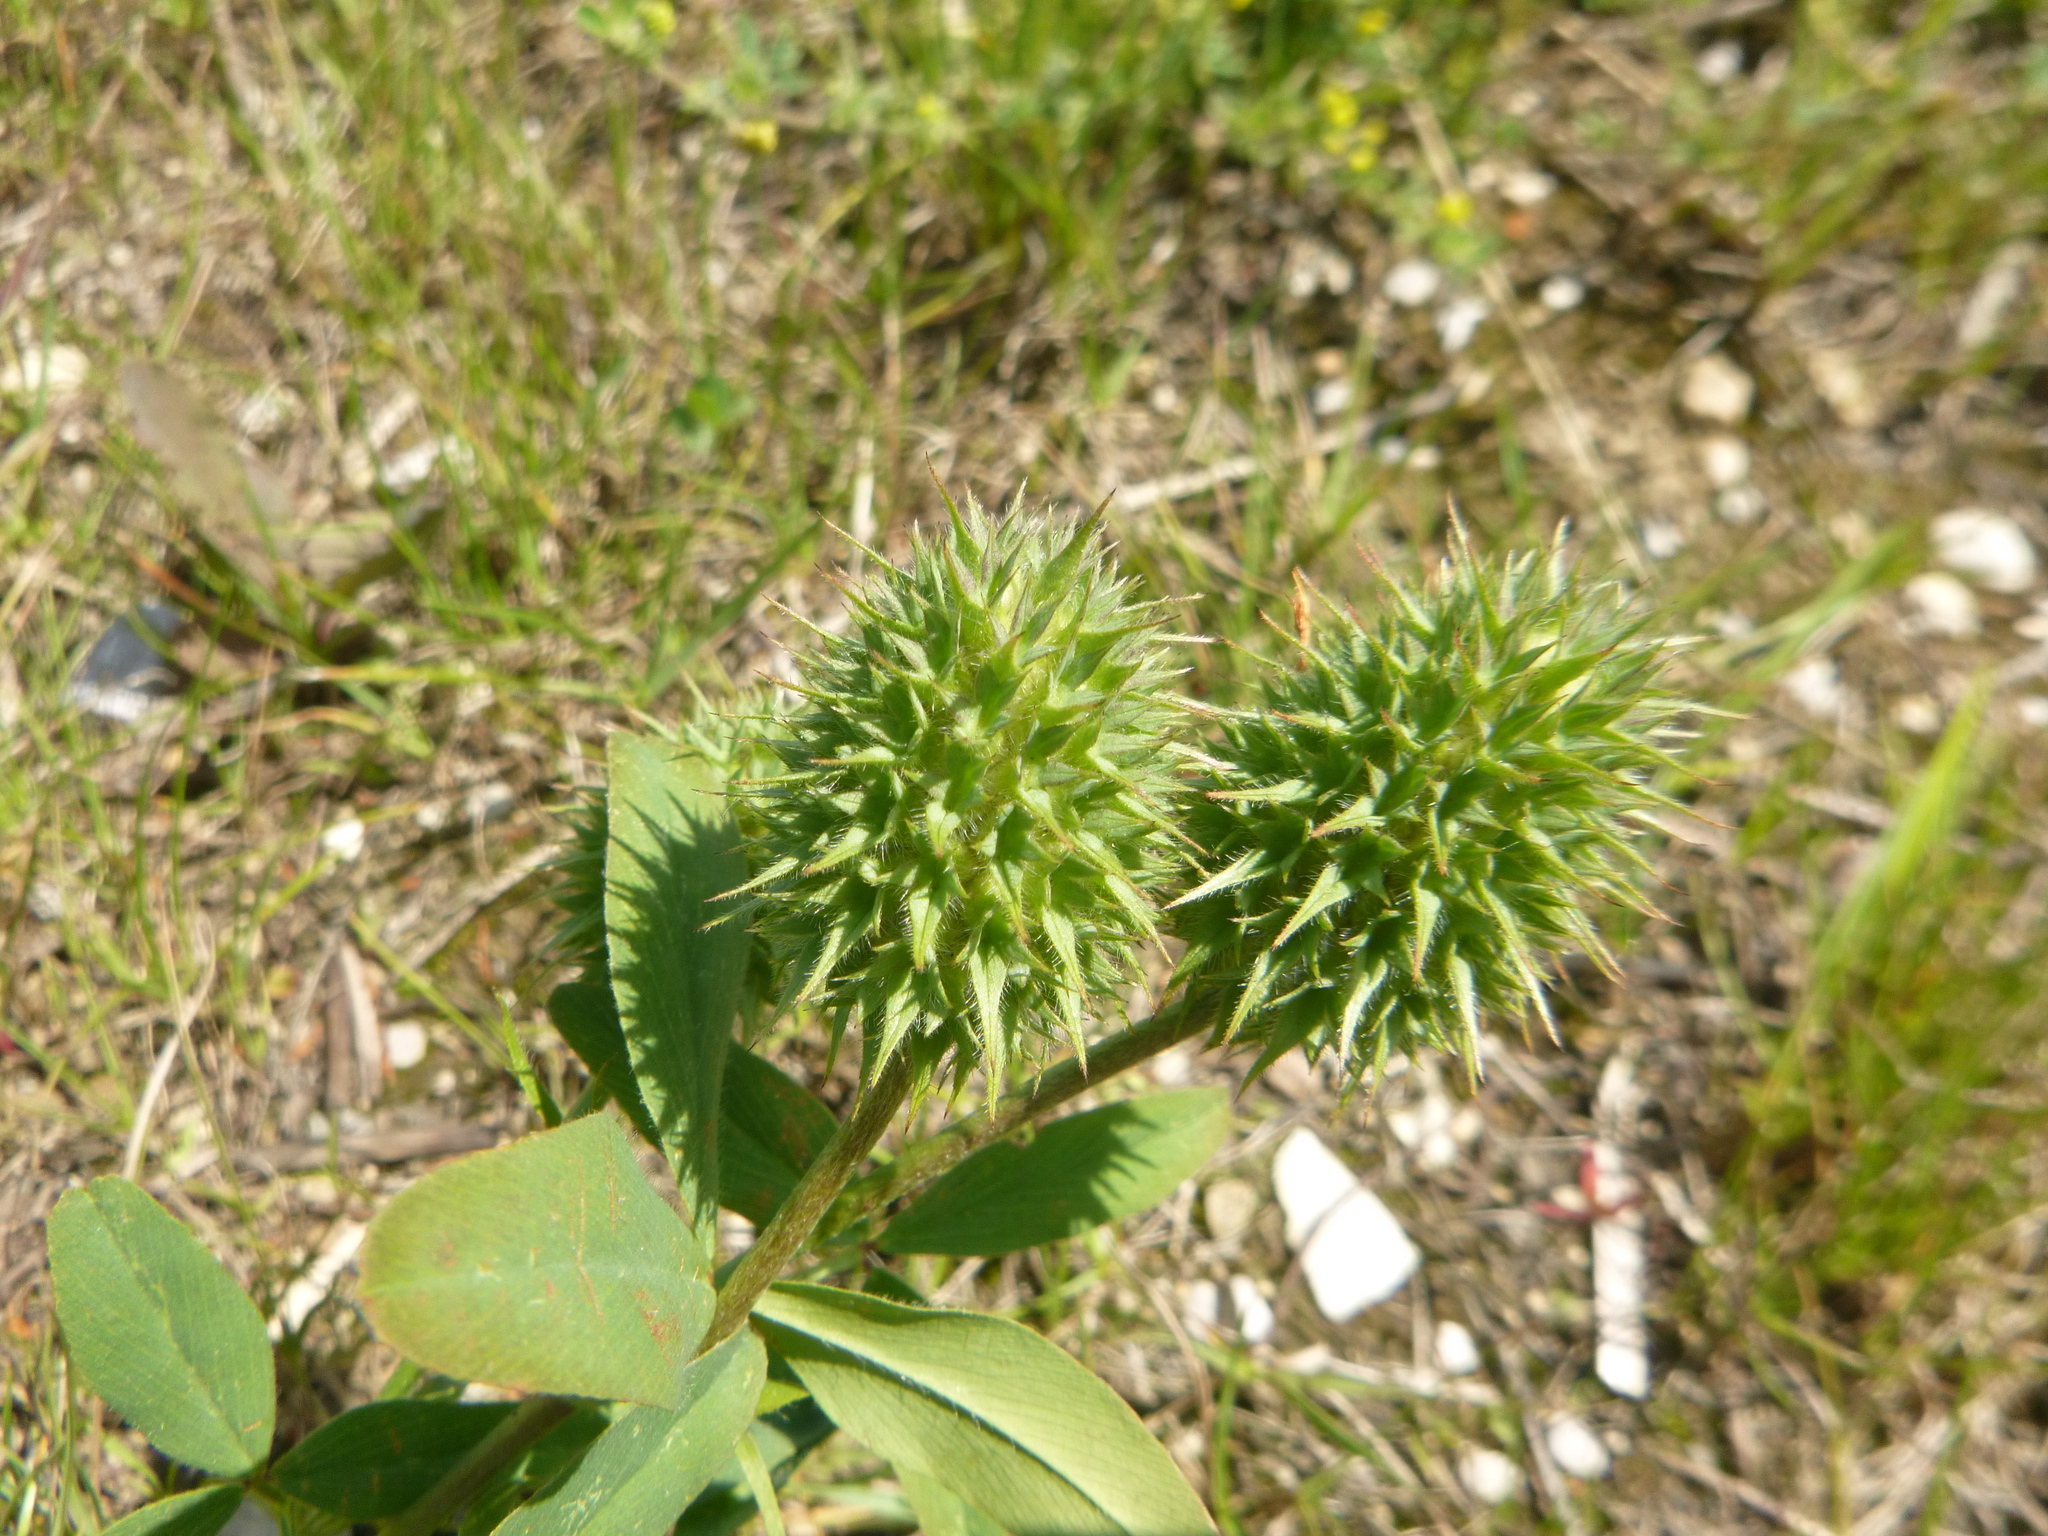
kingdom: Plantae
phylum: Tracheophyta
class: Magnoliopsida
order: Fabales
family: Fabaceae
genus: Trifolium
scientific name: Trifolium ochroleucon
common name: Sulphur clover
